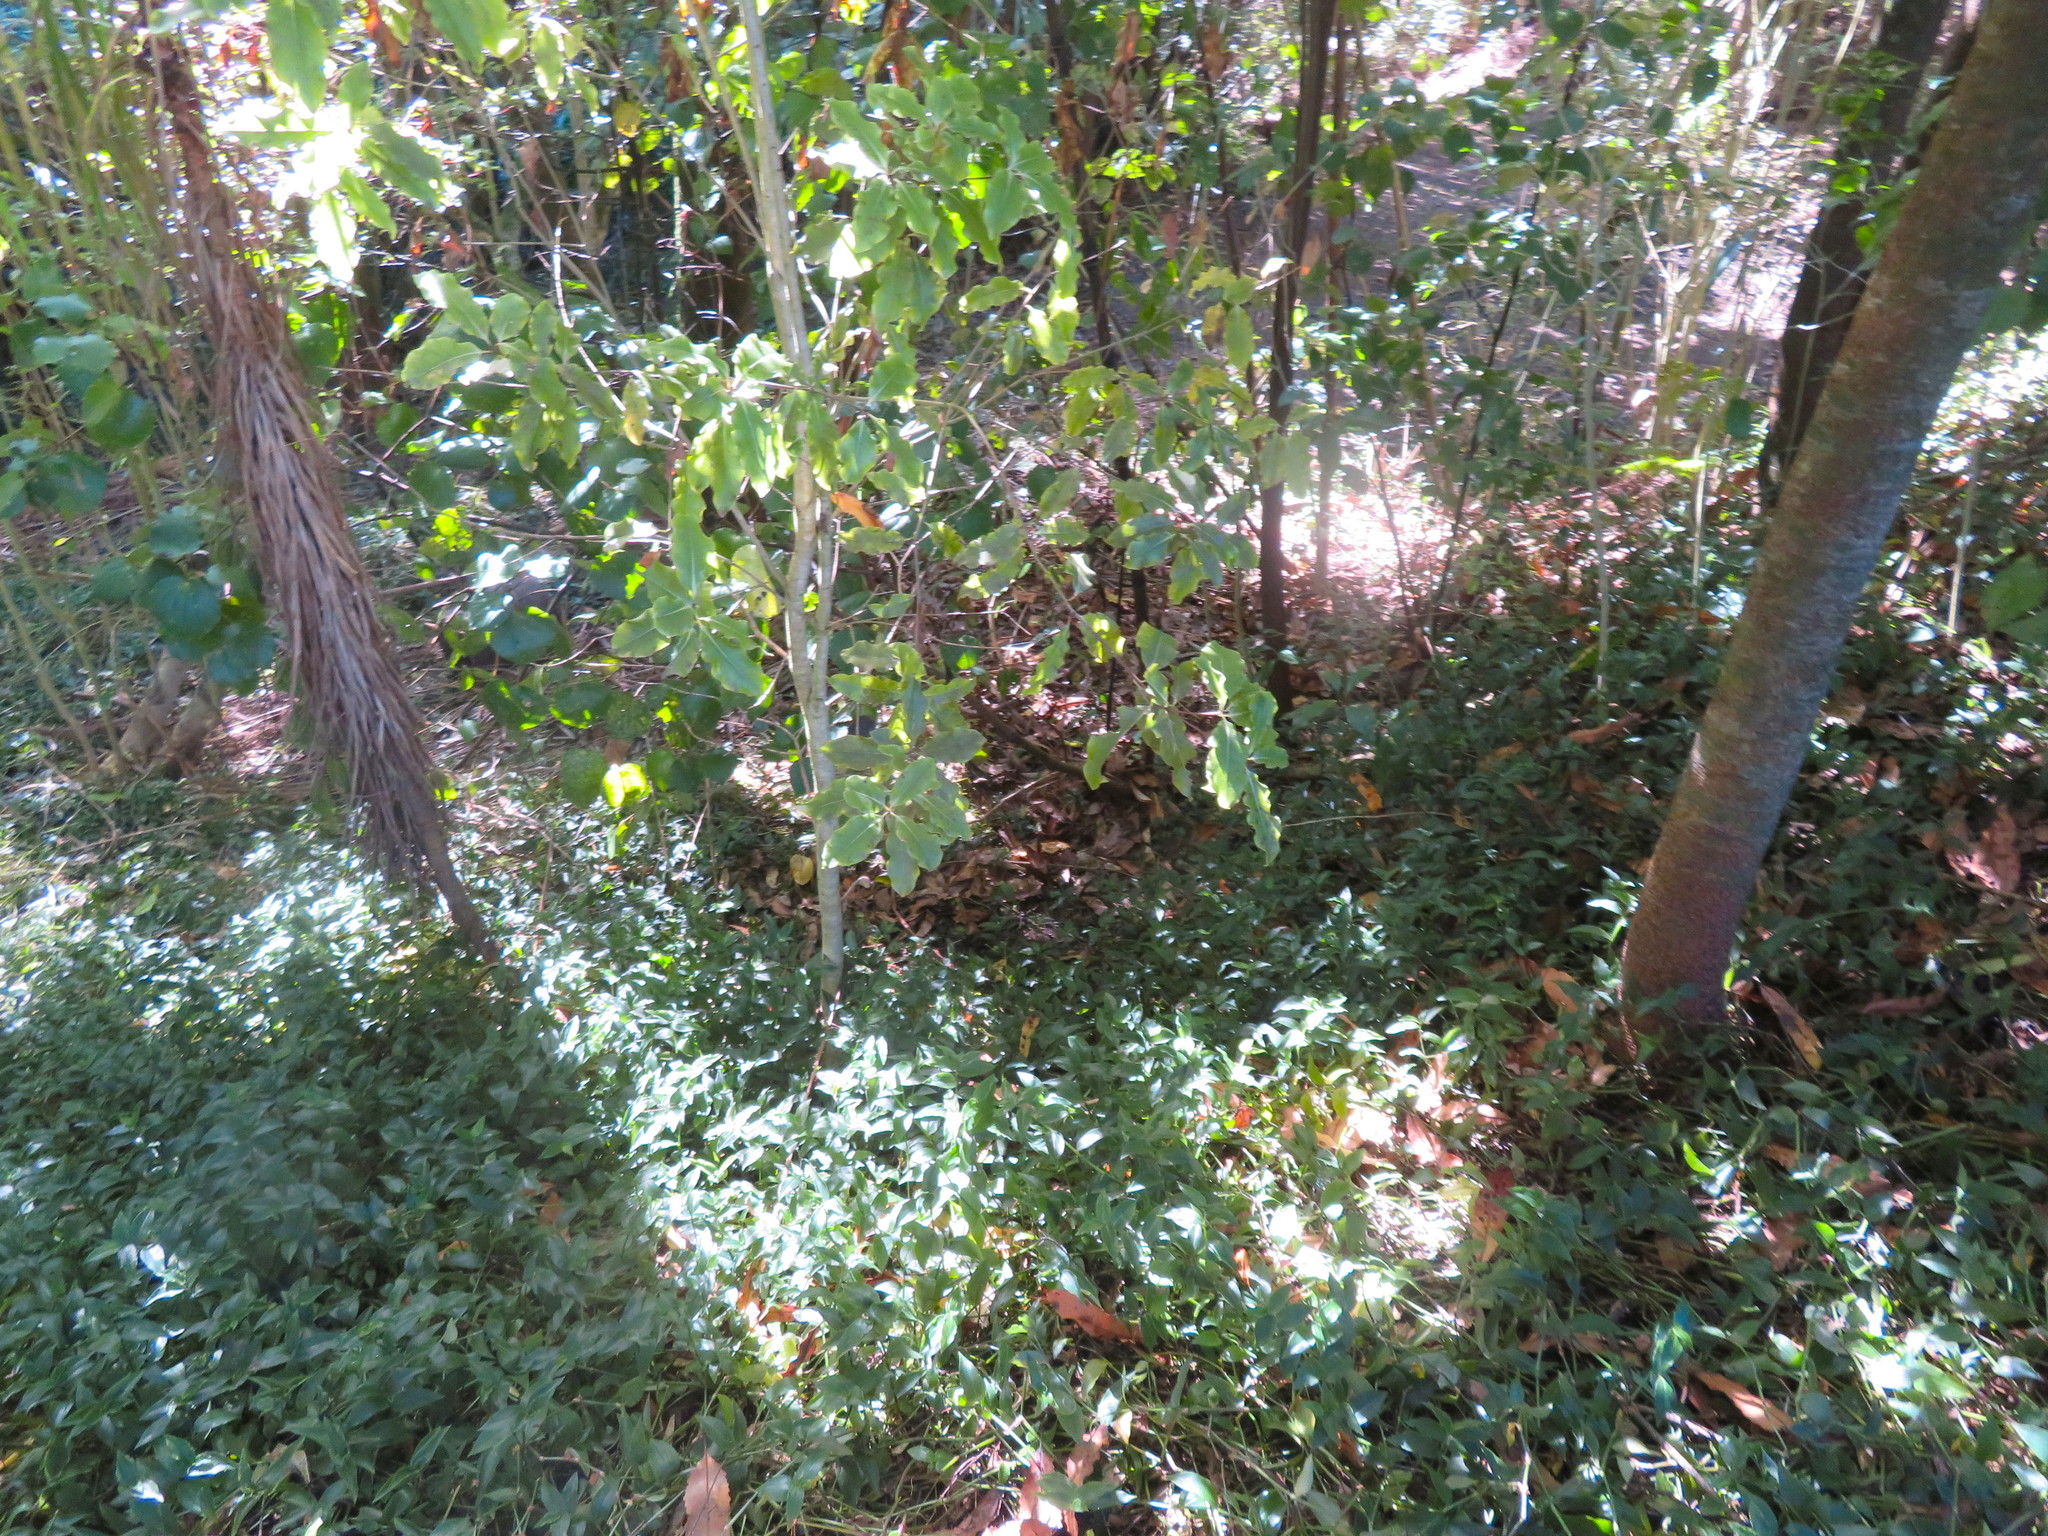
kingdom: Plantae
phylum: Tracheophyta
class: Magnoliopsida
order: Apiales
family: Pittosporaceae
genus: Pittosporum
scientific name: Pittosporum eugenioides
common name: Lemonwood
